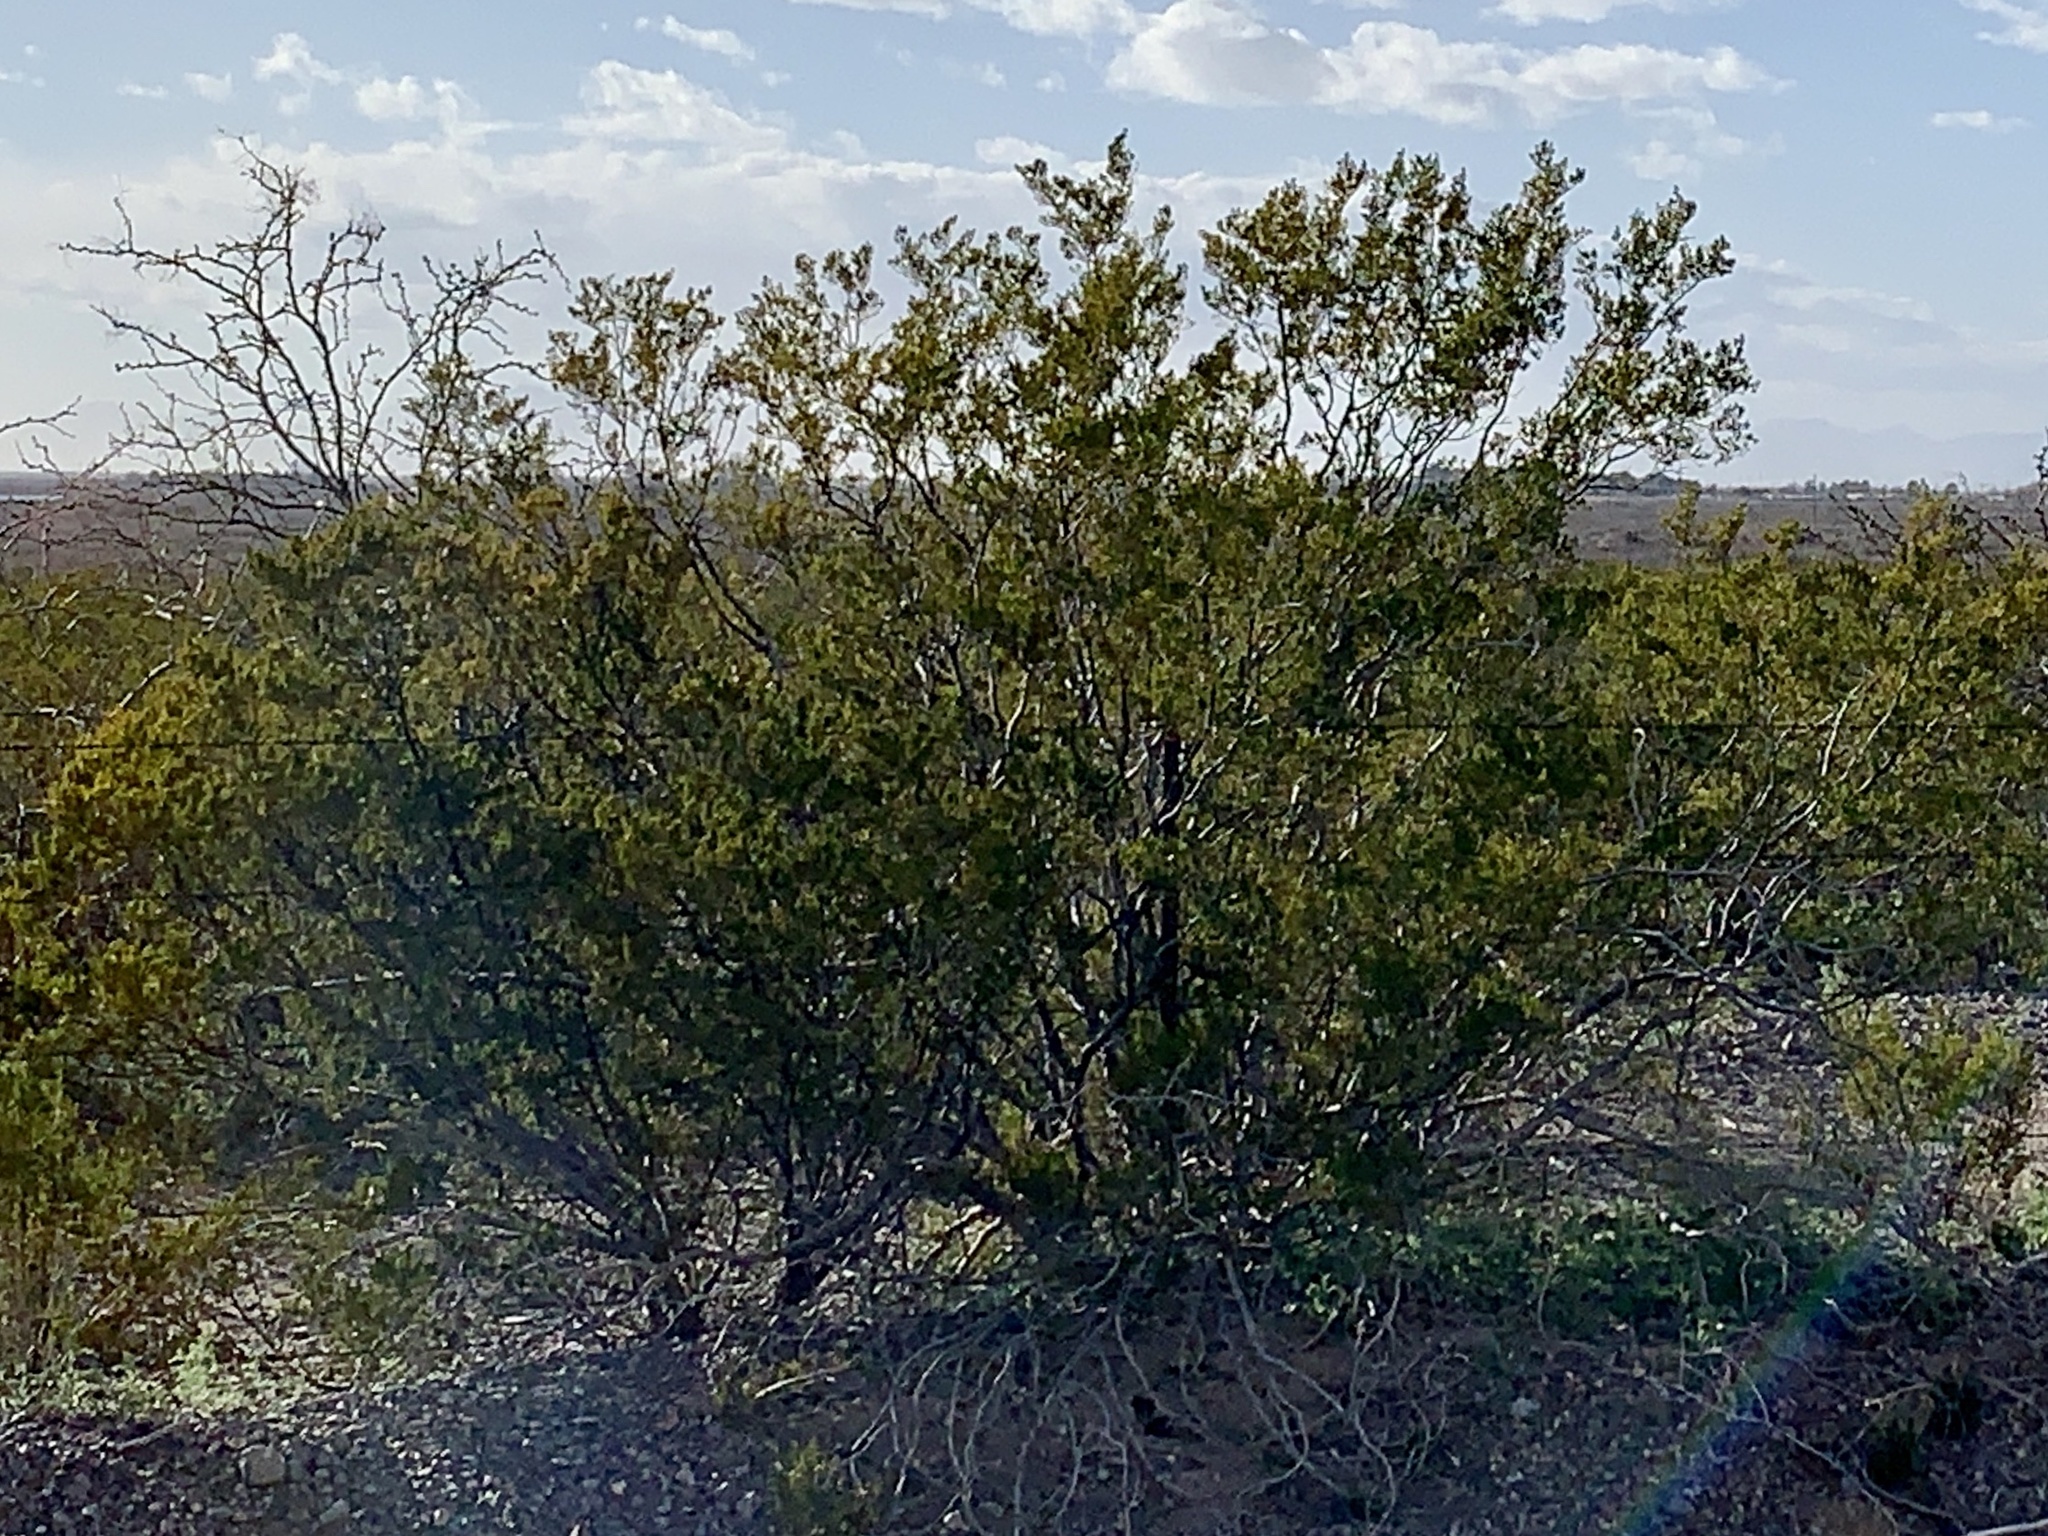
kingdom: Plantae
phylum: Tracheophyta
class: Magnoliopsida
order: Zygophyllales
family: Zygophyllaceae
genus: Larrea
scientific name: Larrea tridentata
